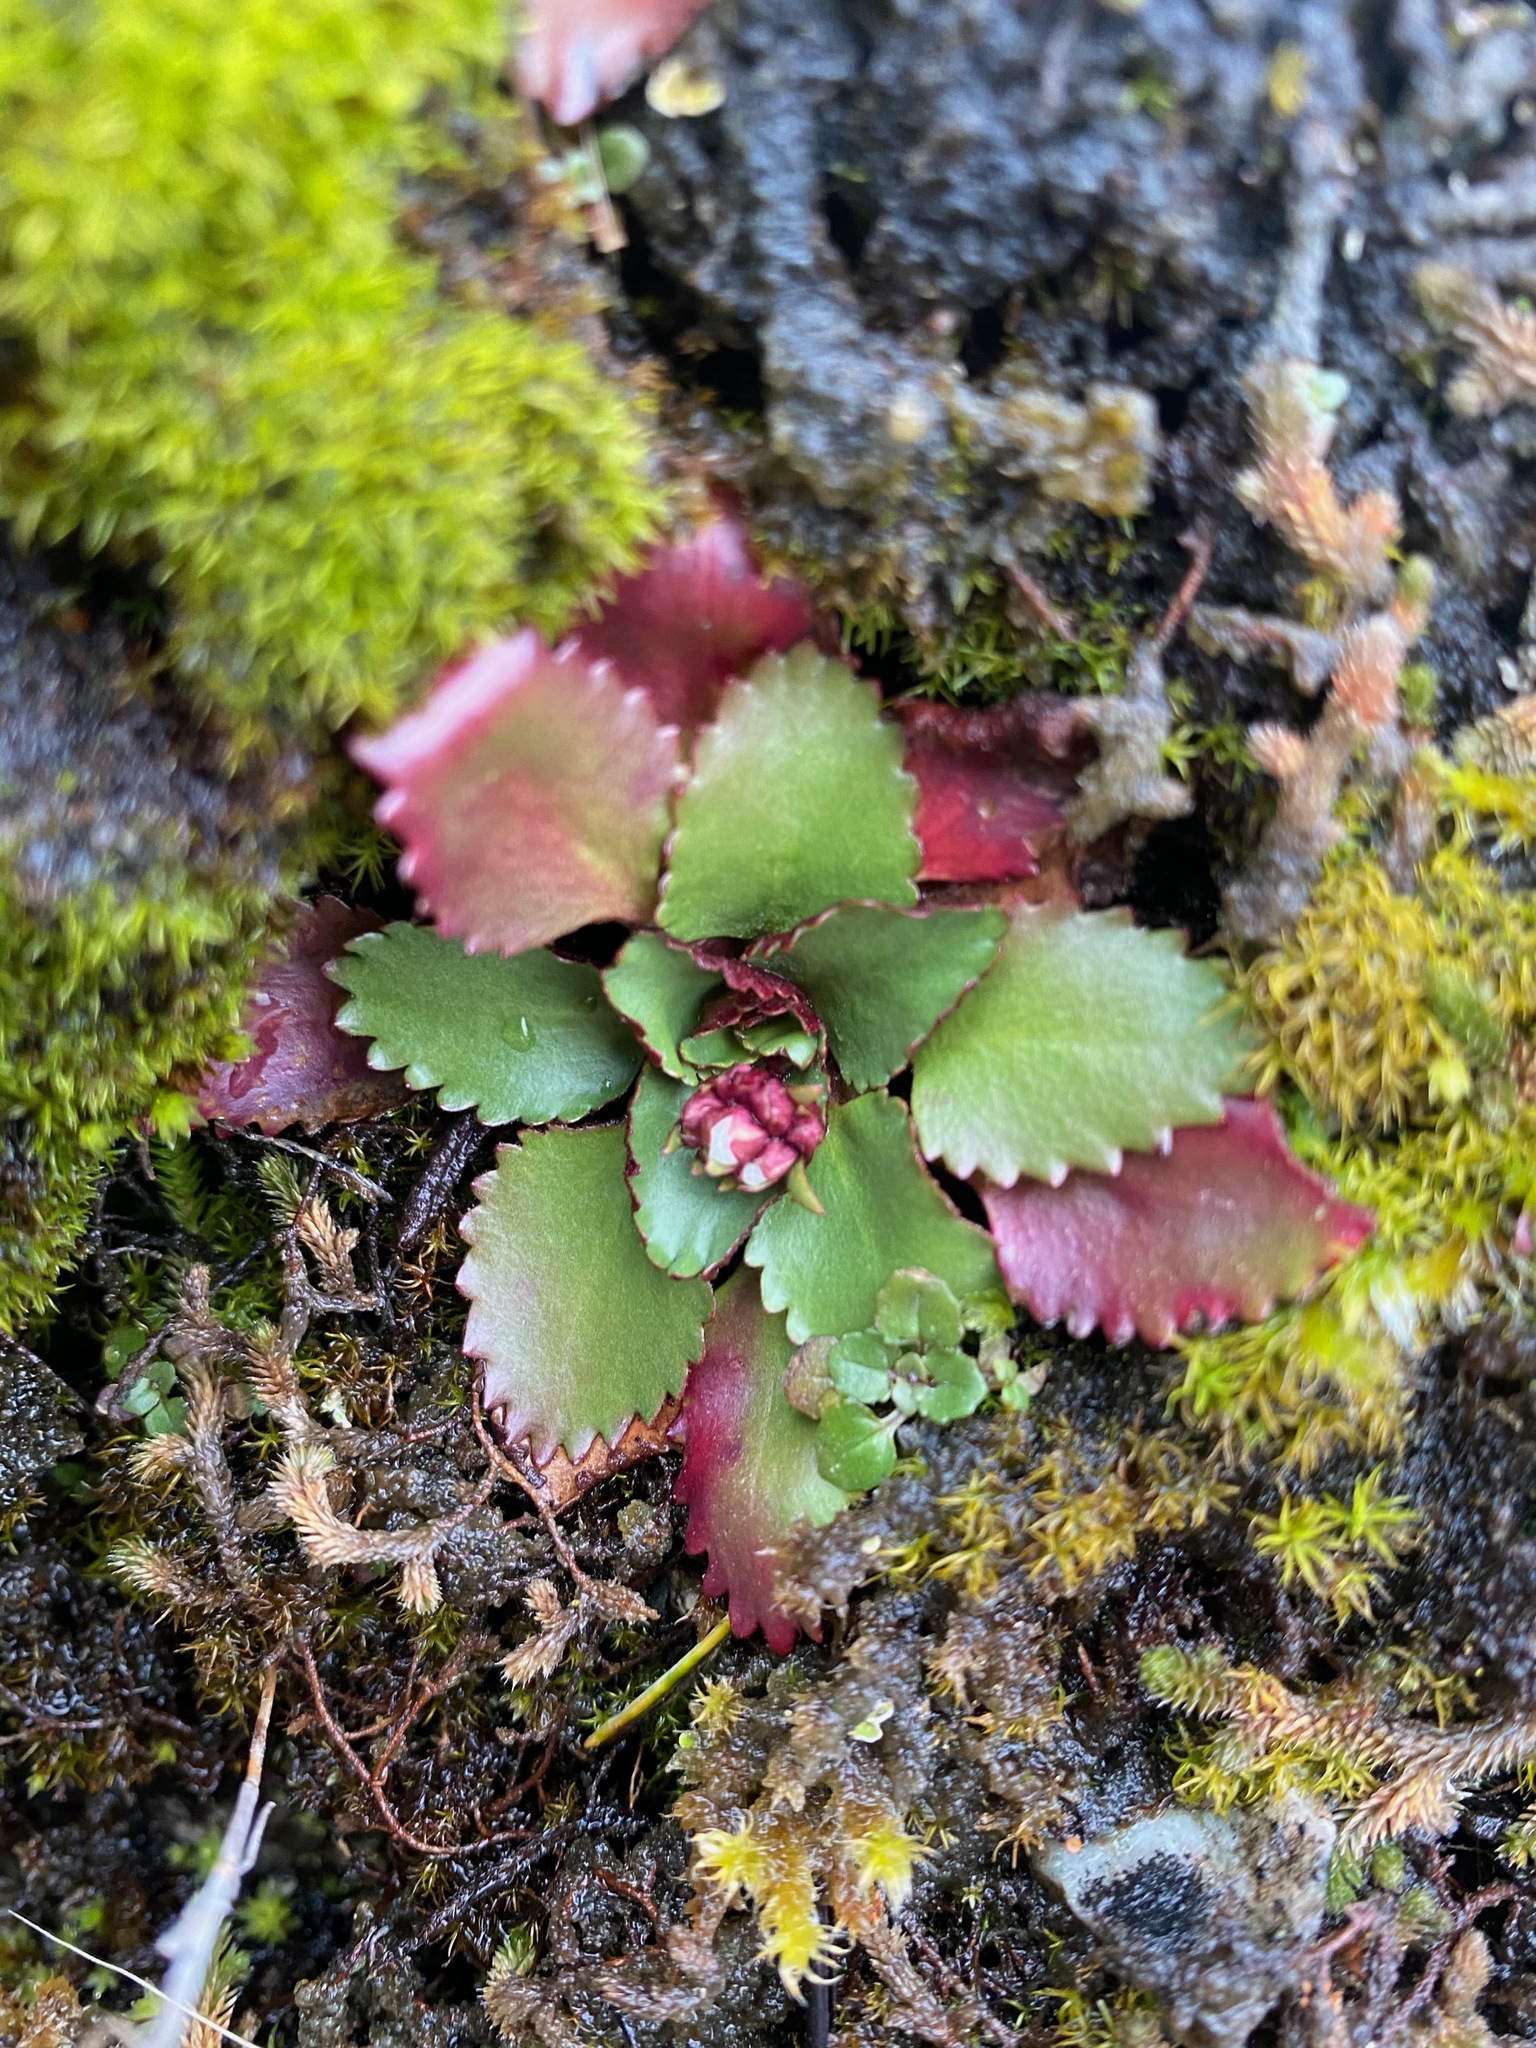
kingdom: Plantae
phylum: Tracheophyta
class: Magnoliopsida
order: Saxifragales
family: Saxifragaceae
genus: Micranthes
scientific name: Micranthes rufidula
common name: Rustyhair saxifrage
